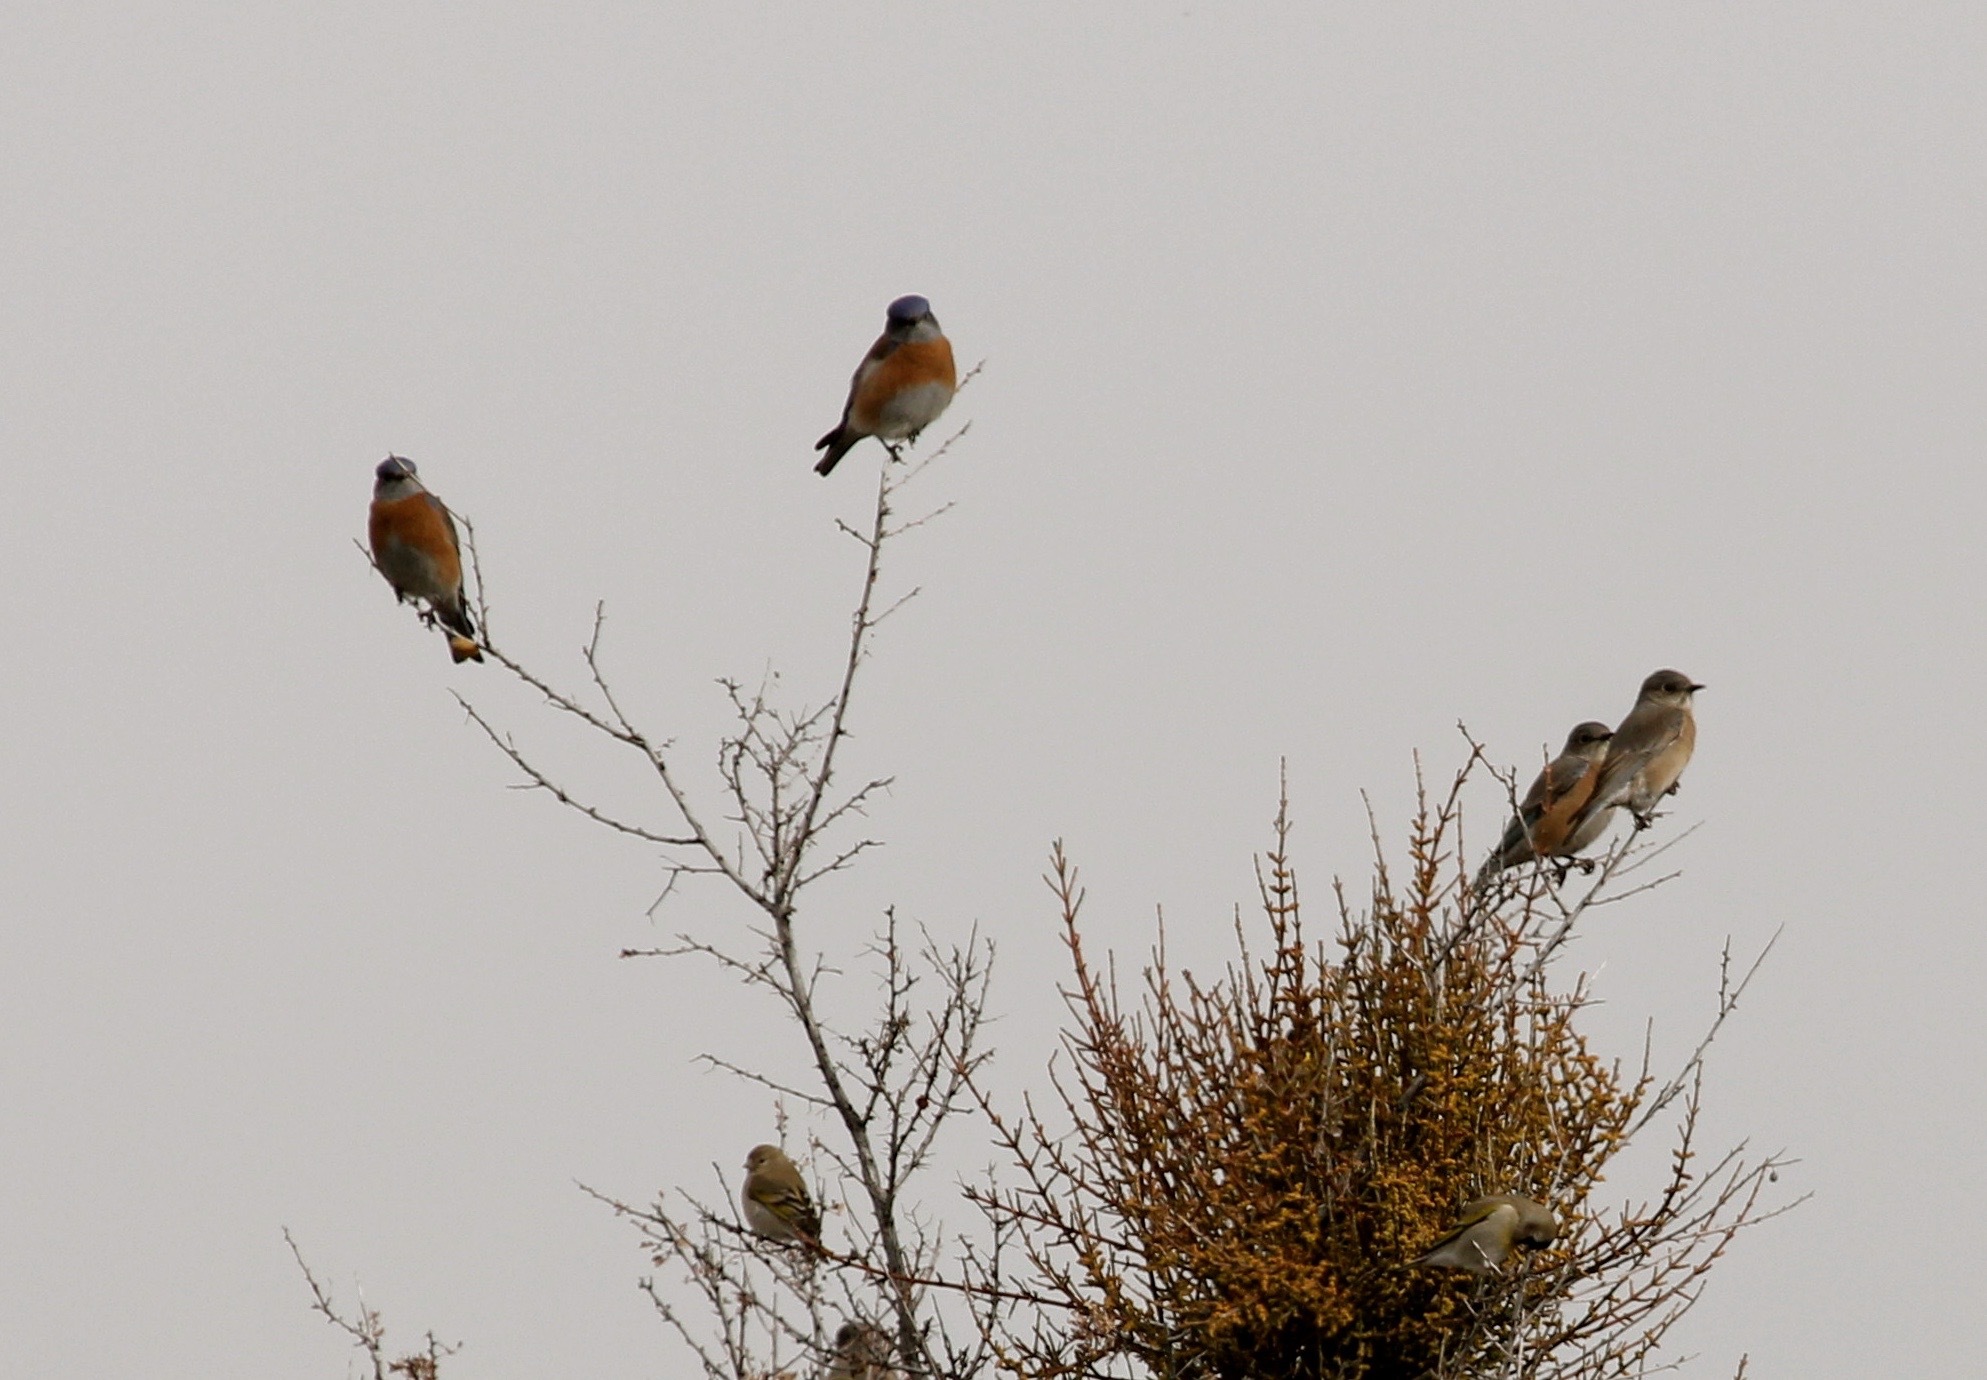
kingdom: Animalia
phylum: Chordata
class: Aves
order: Passeriformes
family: Turdidae
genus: Sialia
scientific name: Sialia mexicana
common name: Western bluebird
